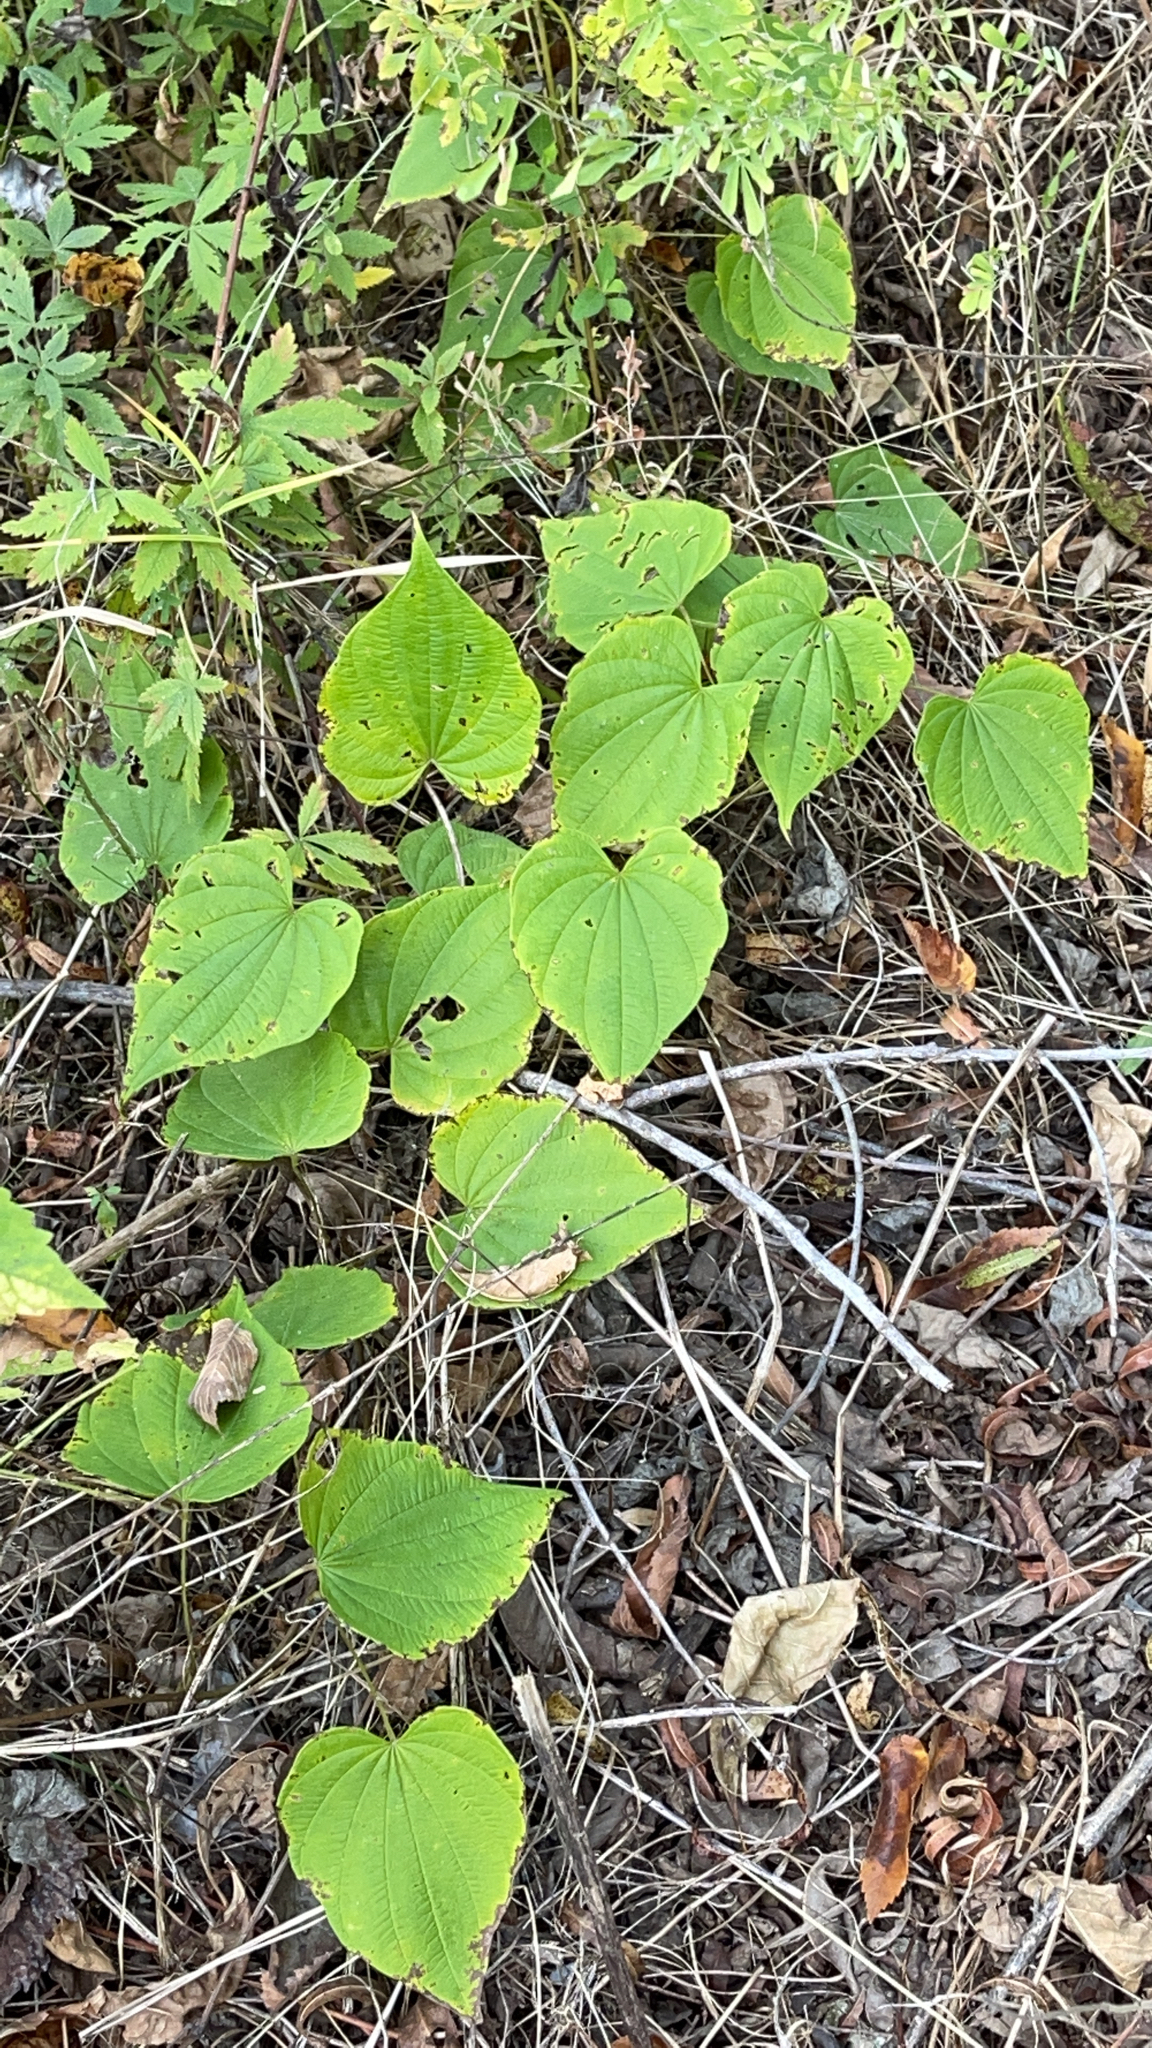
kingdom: Plantae
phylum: Tracheophyta
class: Liliopsida
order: Dioscoreales
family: Dioscoreaceae
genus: Dioscorea
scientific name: Dioscorea villosa
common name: Wild yam
